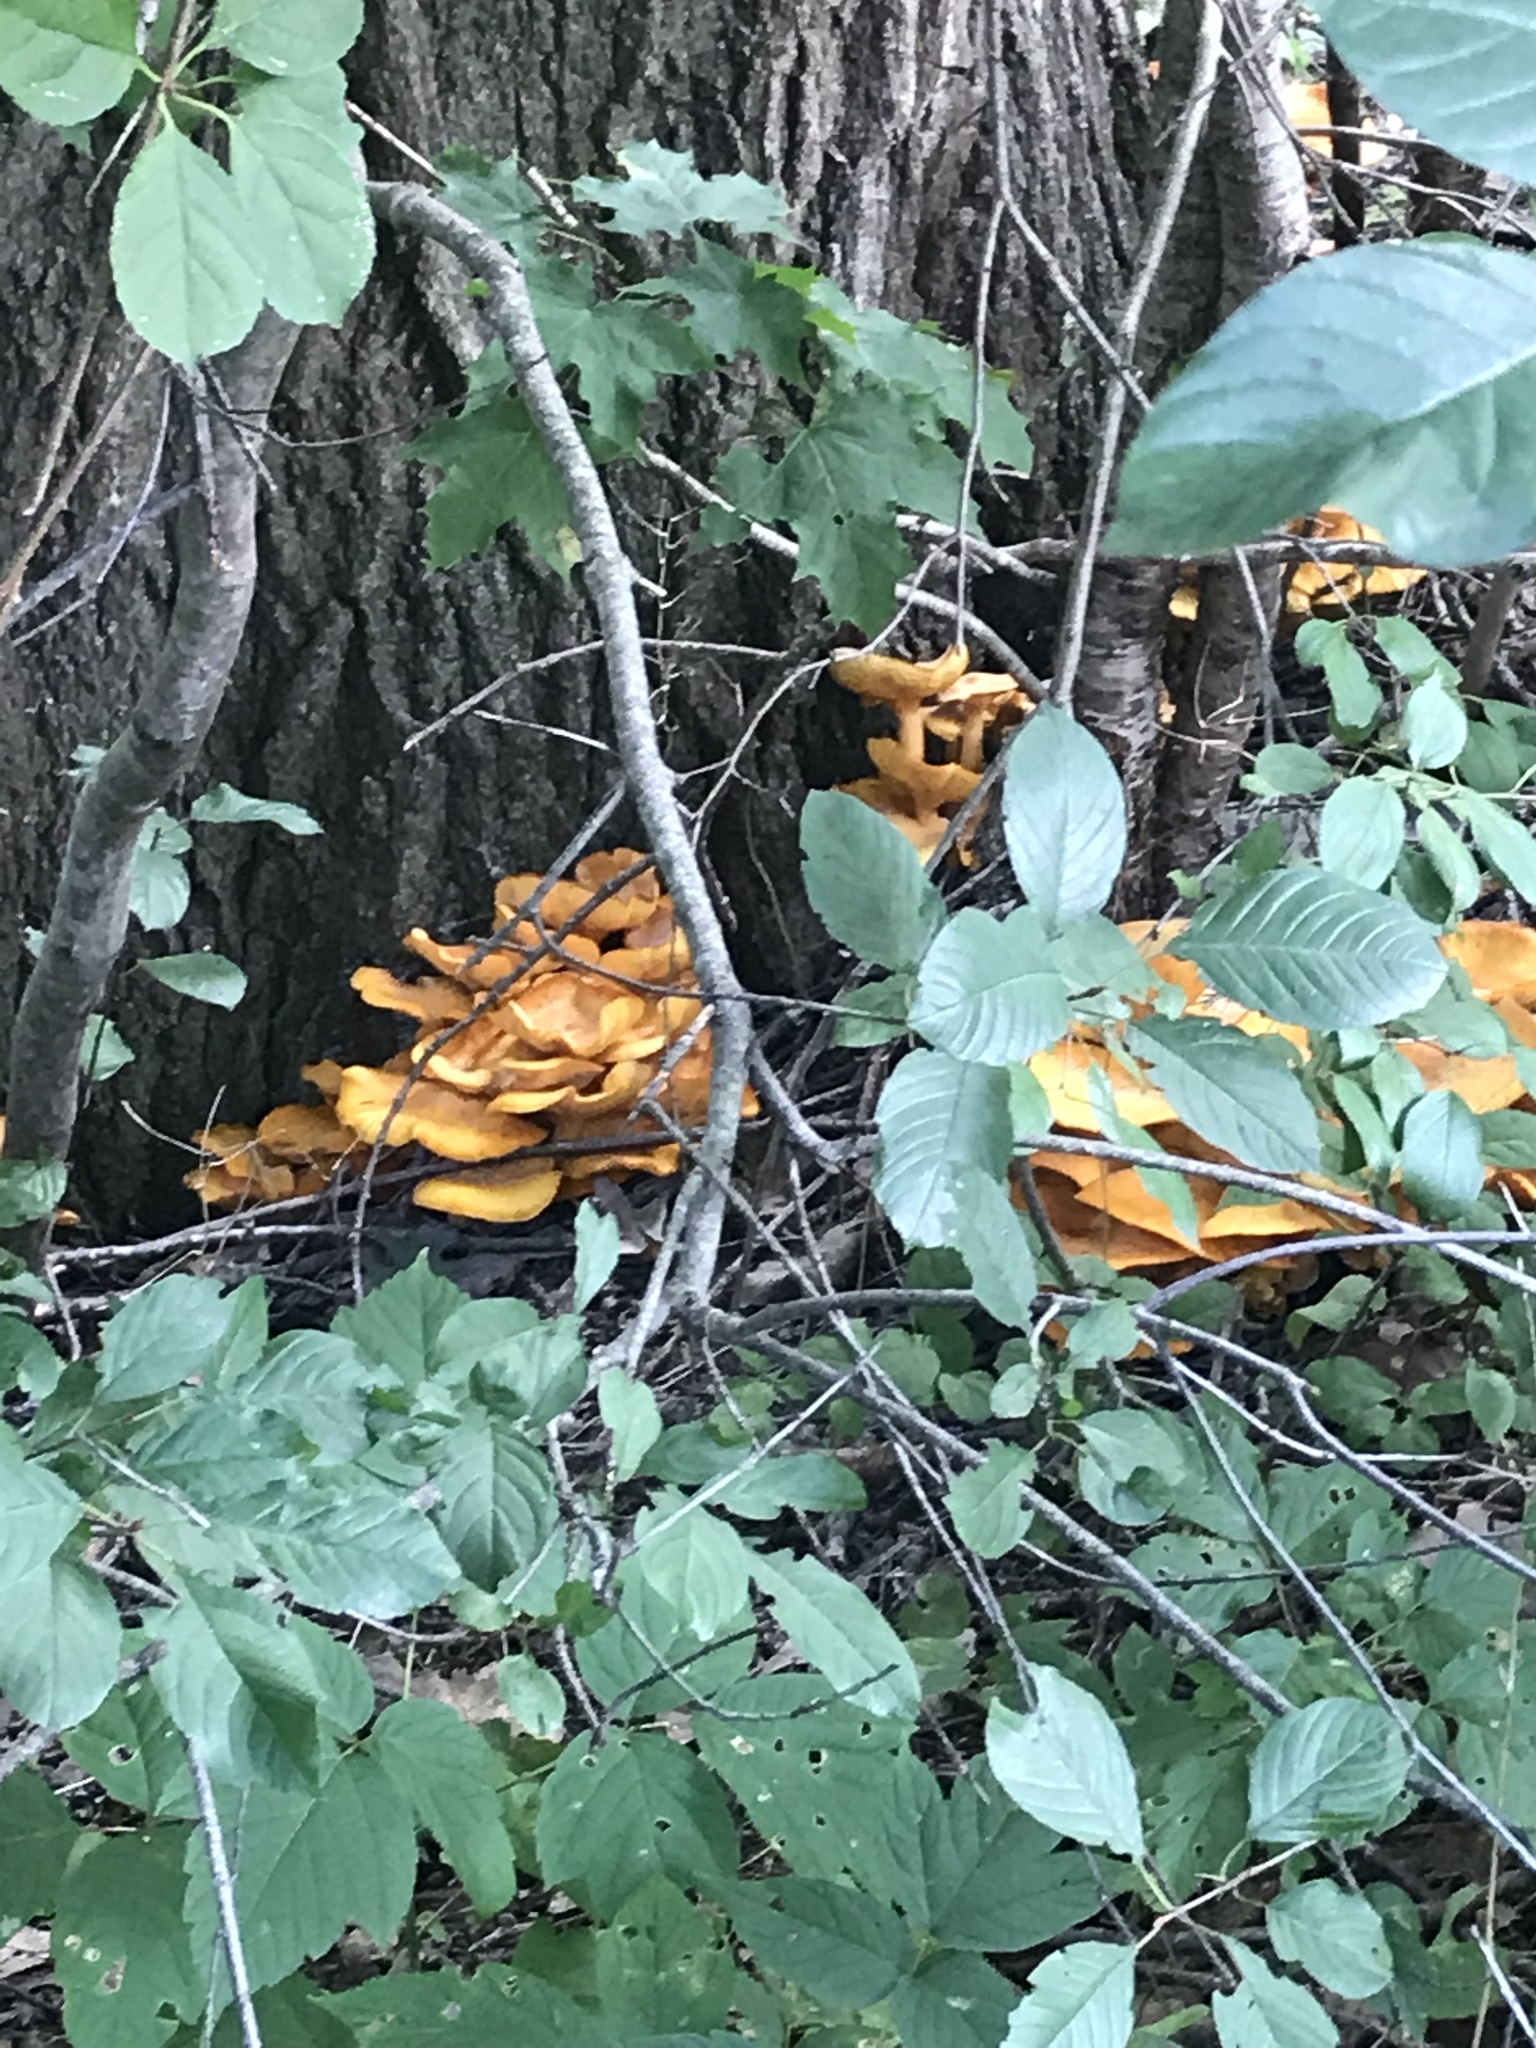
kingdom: Fungi
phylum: Basidiomycota
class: Agaricomycetes
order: Polyporales
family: Laetiporaceae
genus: Laetiporus
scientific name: Laetiporus sulphureus
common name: Chicken of the woods
